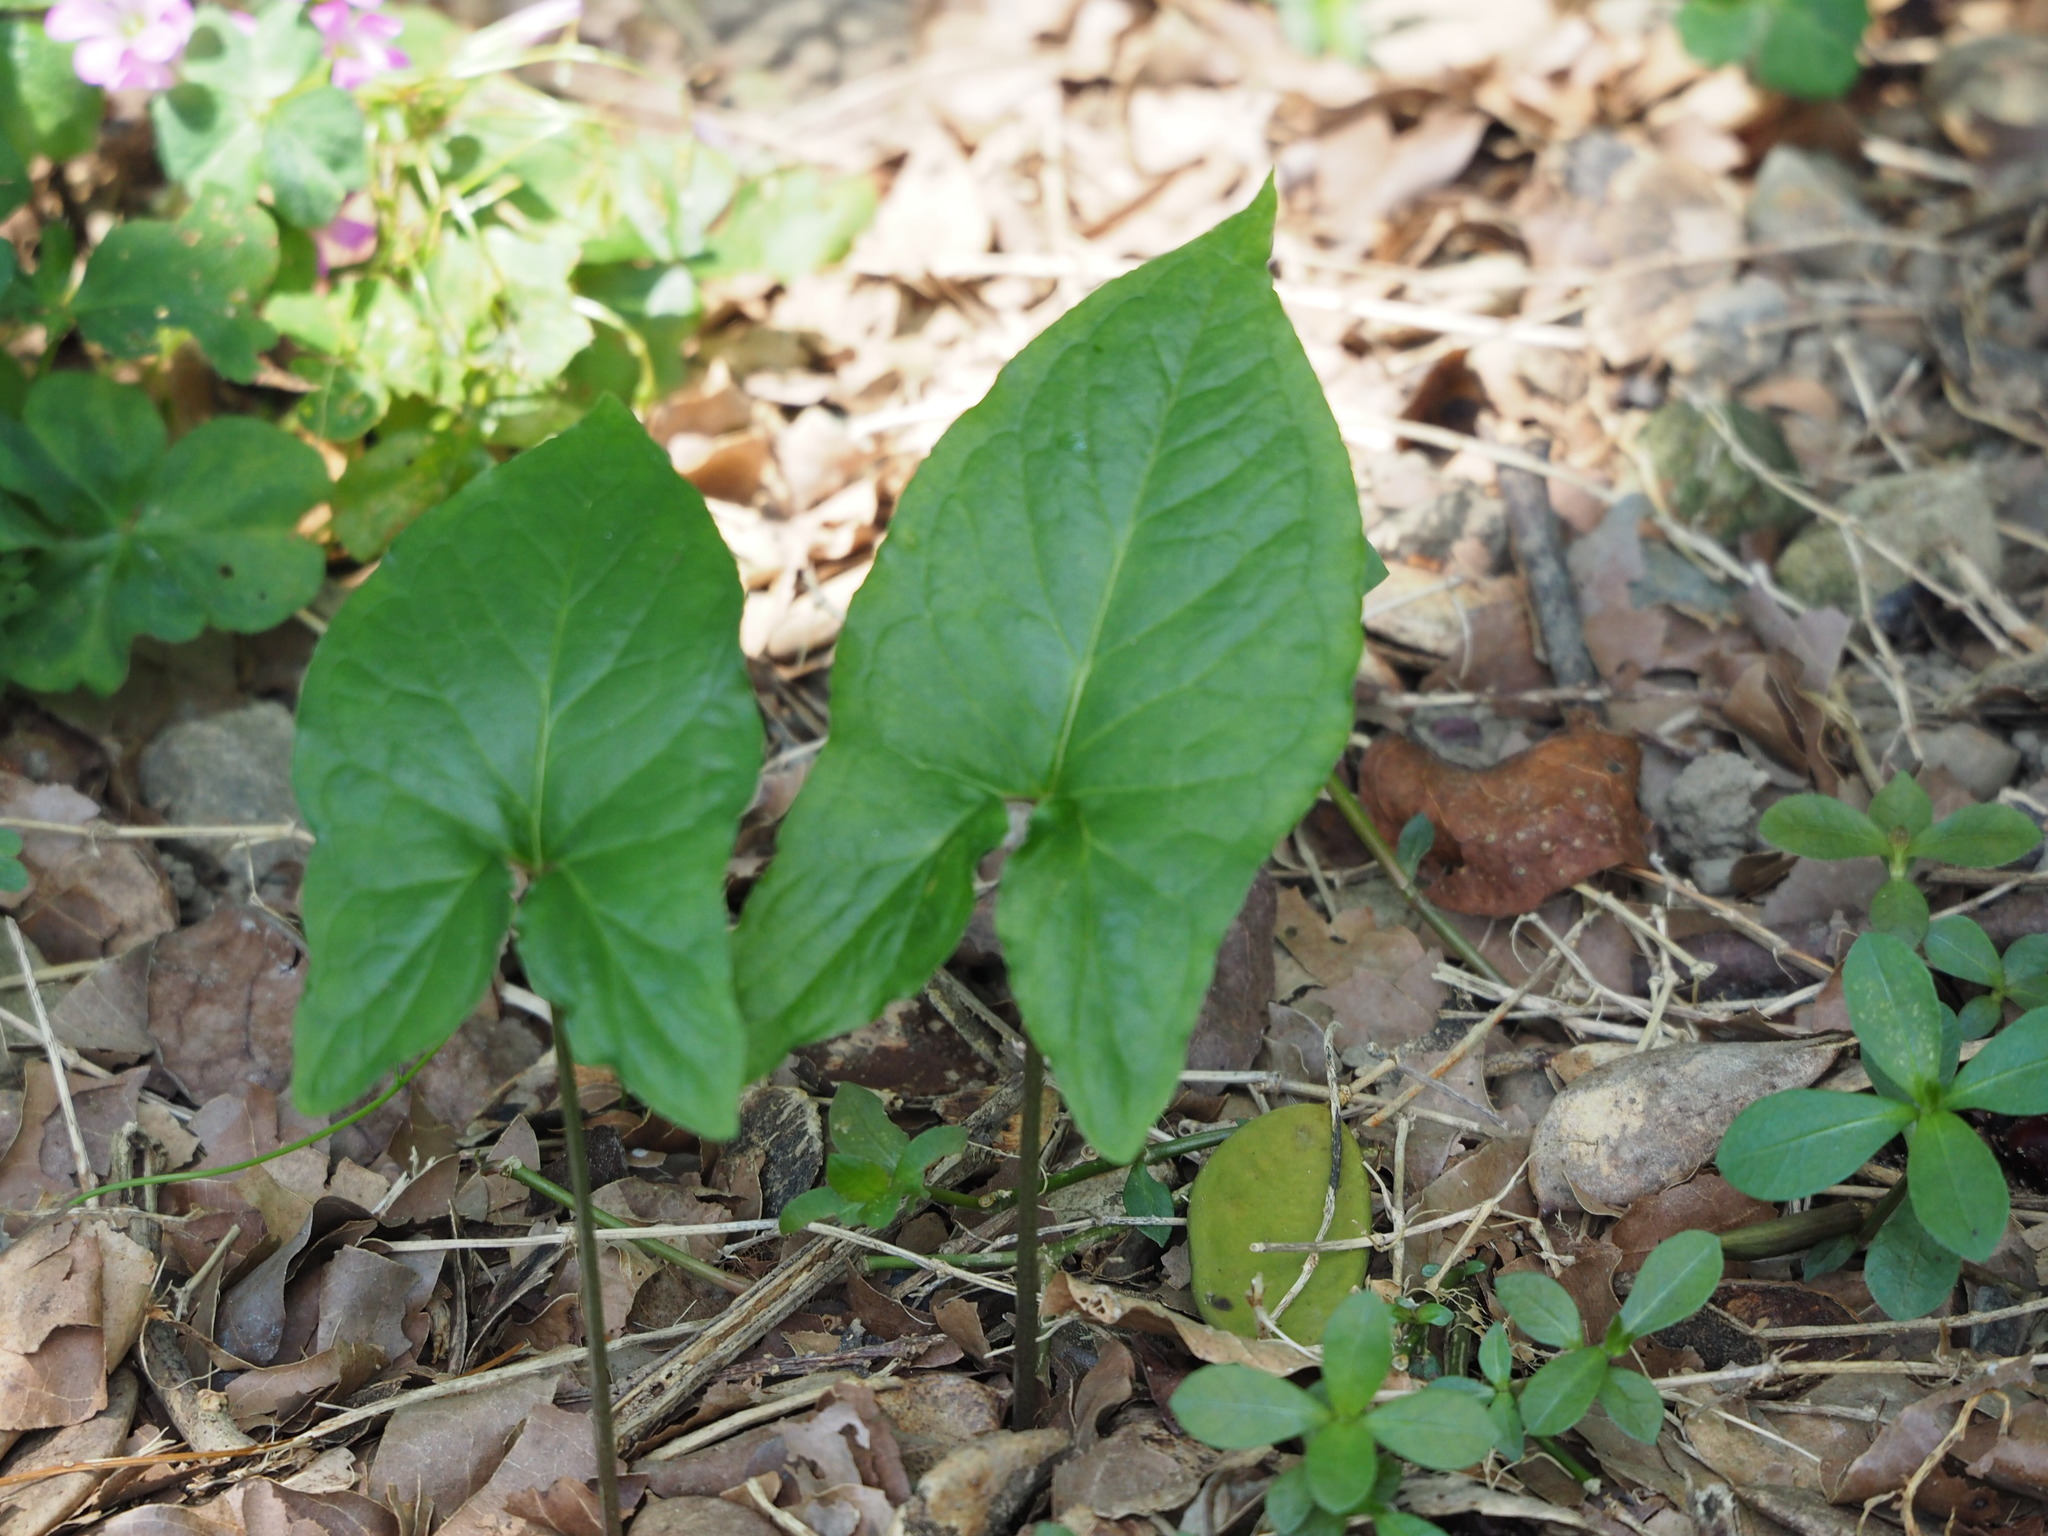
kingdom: Plantae
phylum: Tracheophyta
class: Liliopsida
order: Alismatales
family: Araceae
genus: Typhonium
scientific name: Typhonium blumei
